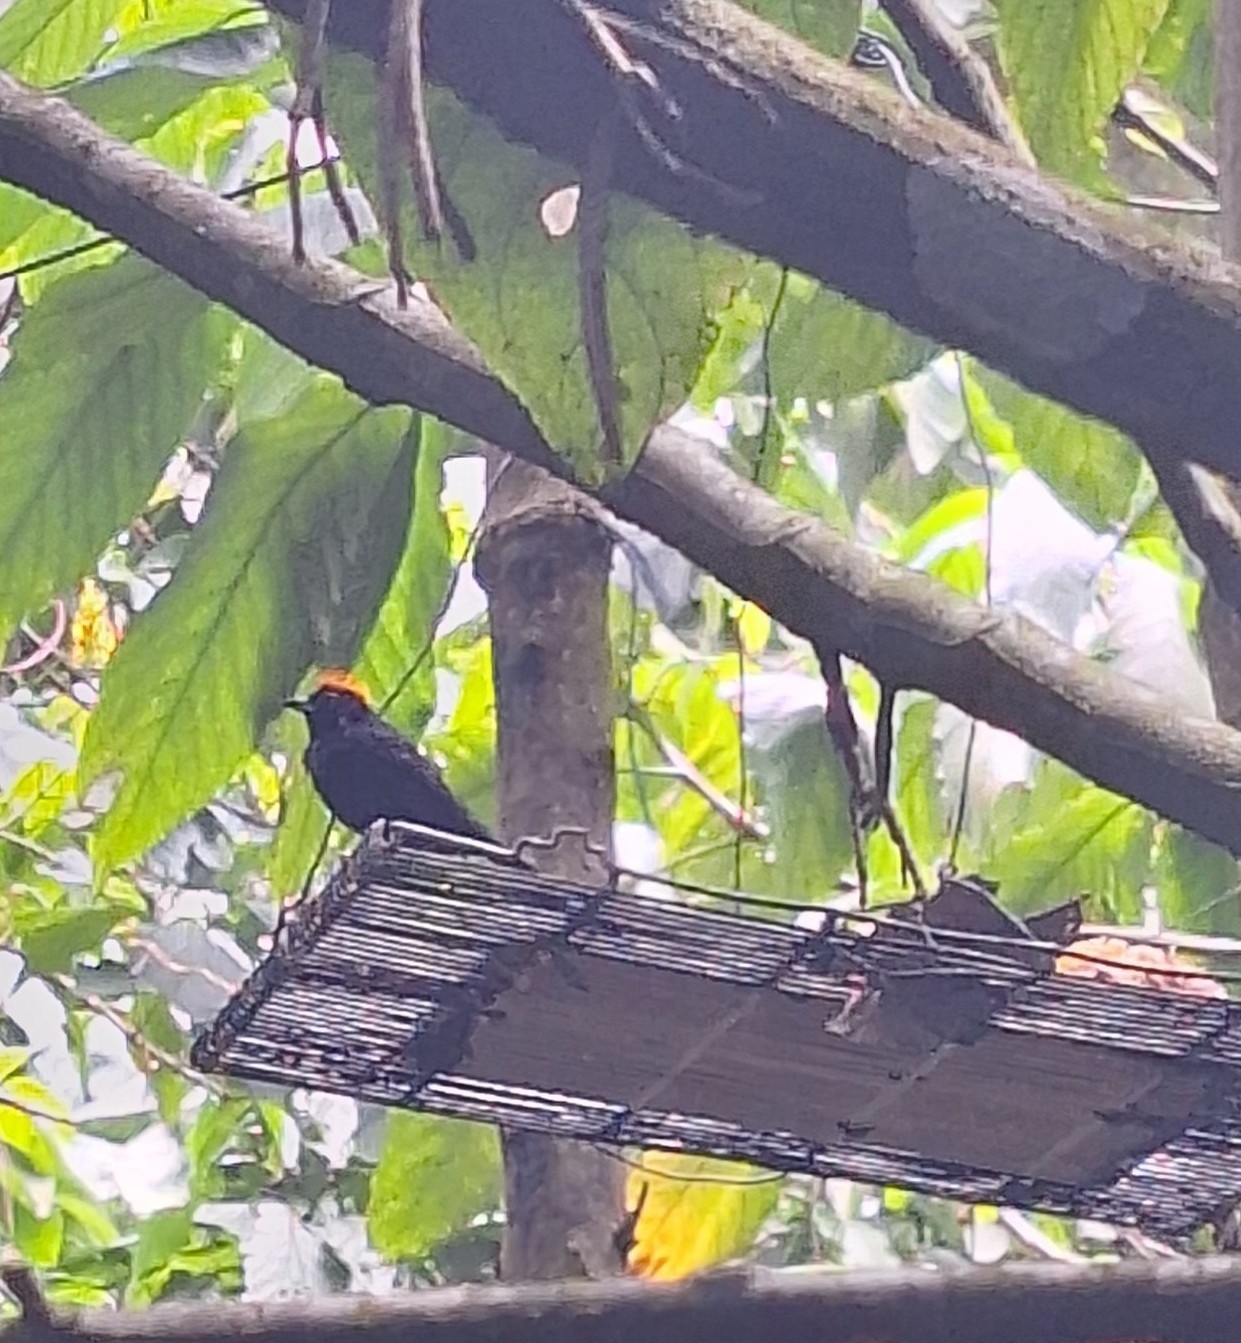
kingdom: Animalia
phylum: Chordata
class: Aves
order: Passeriformes
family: Thraupidae
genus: Tachyphonus
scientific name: Tachyphonus delatrii
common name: Tawny-crested tanager
